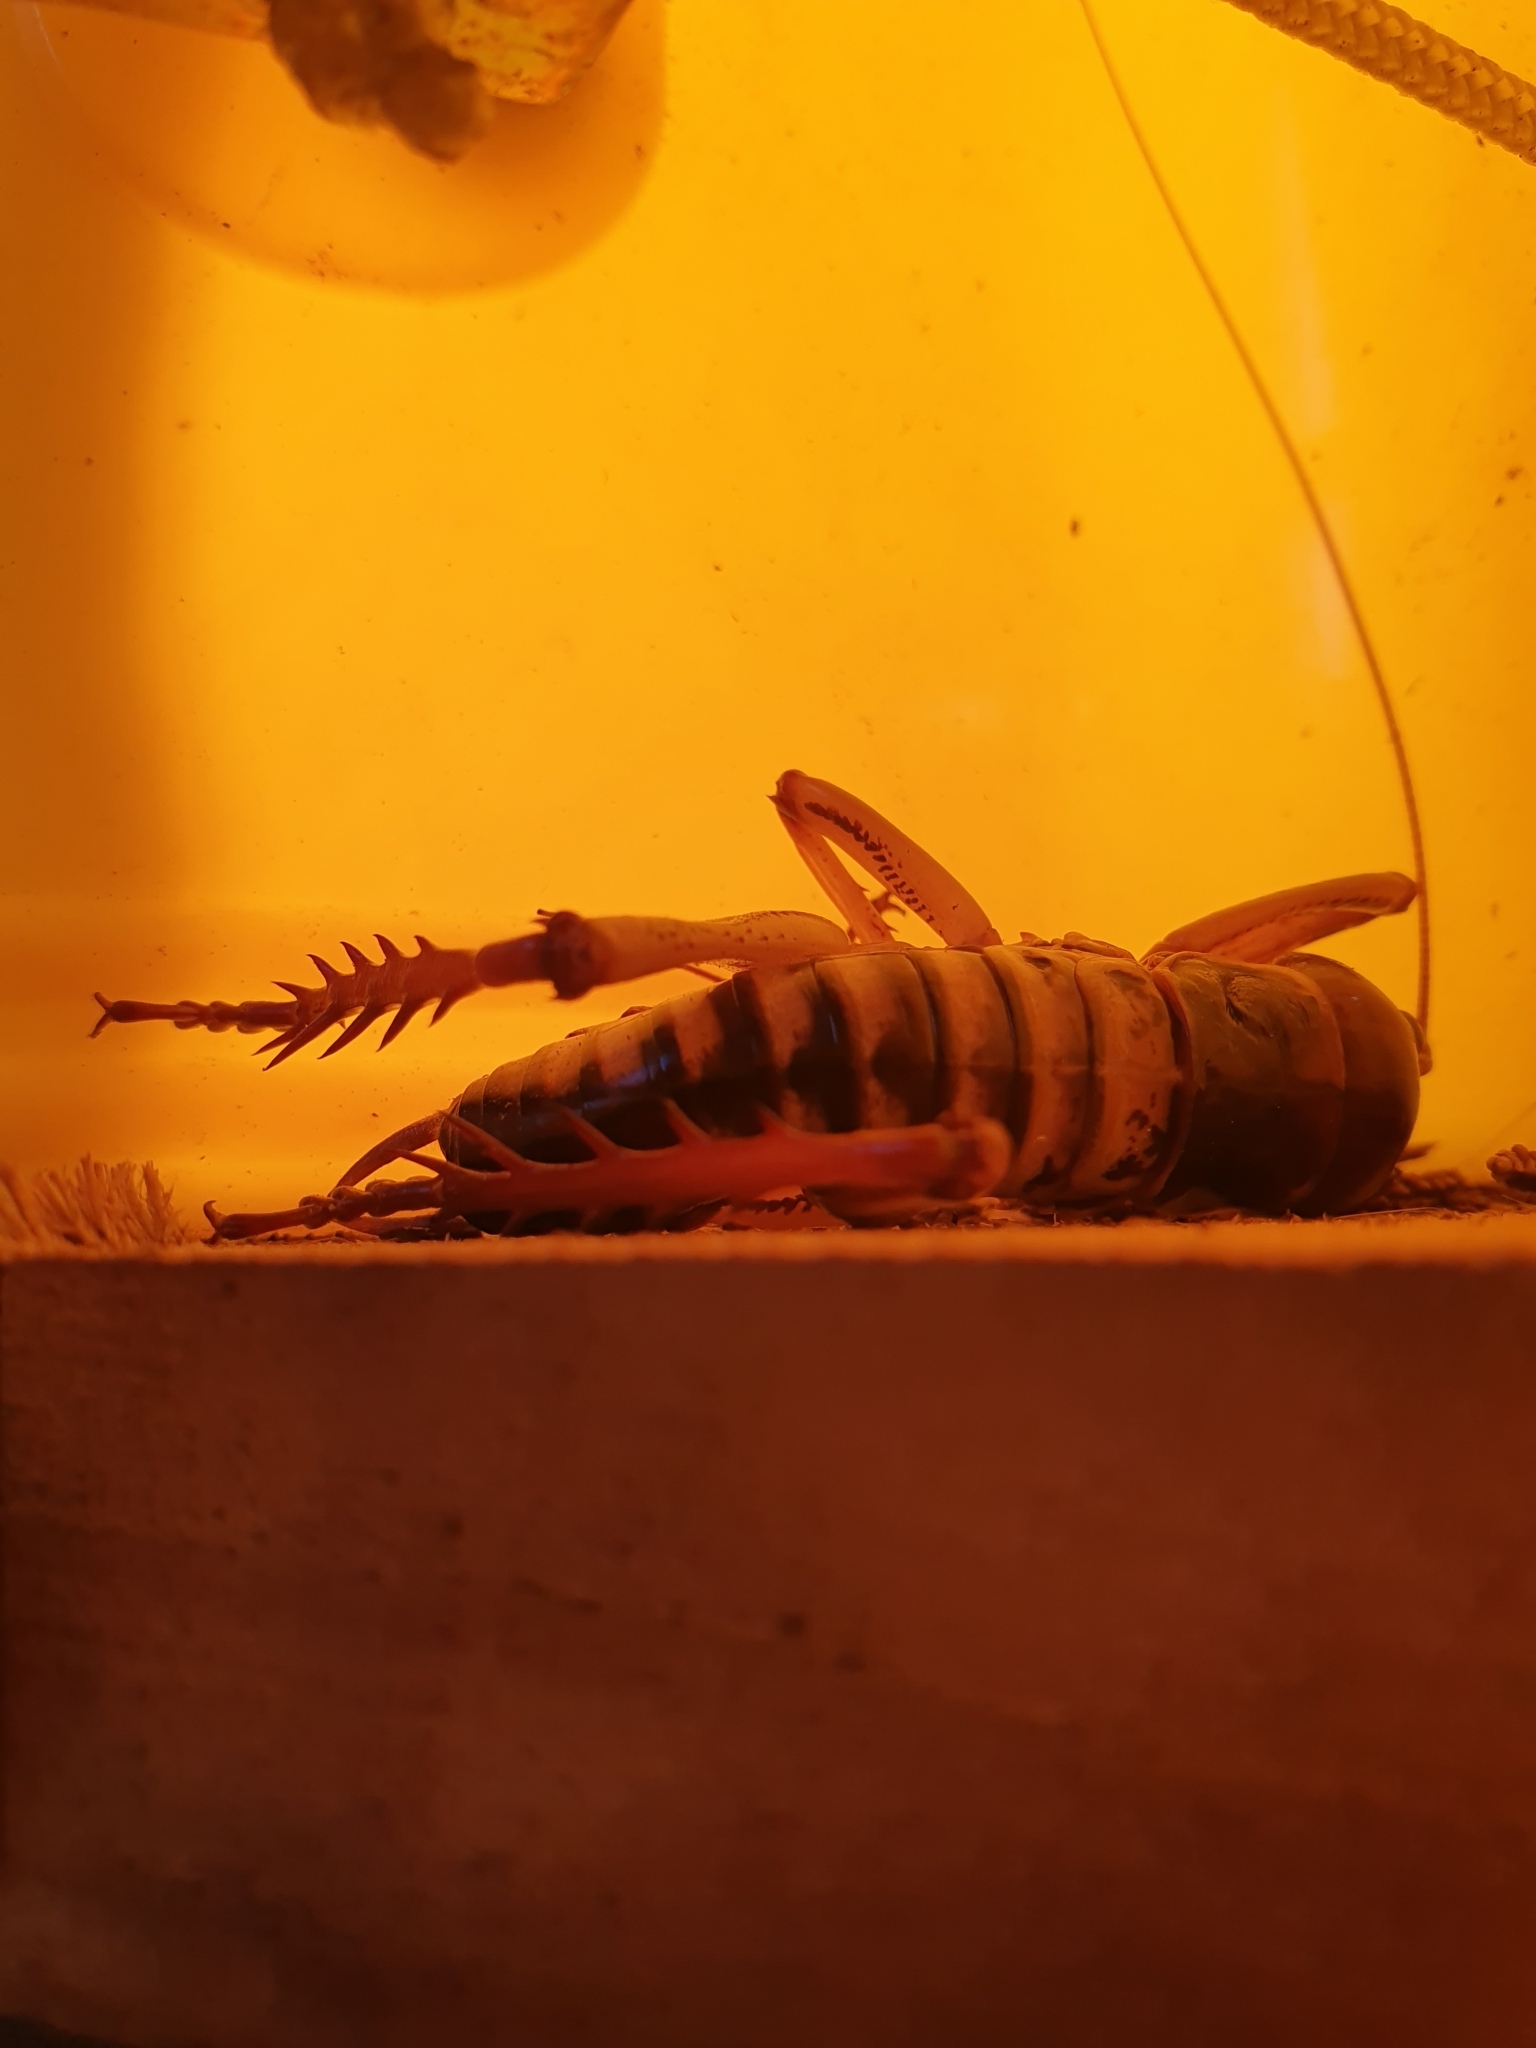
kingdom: Animalia
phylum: Arthropoda
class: Insecta
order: Orthoptera
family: Anostostomatidae
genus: Hemideina
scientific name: Hemideina crassidens
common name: Wellington tree weta
